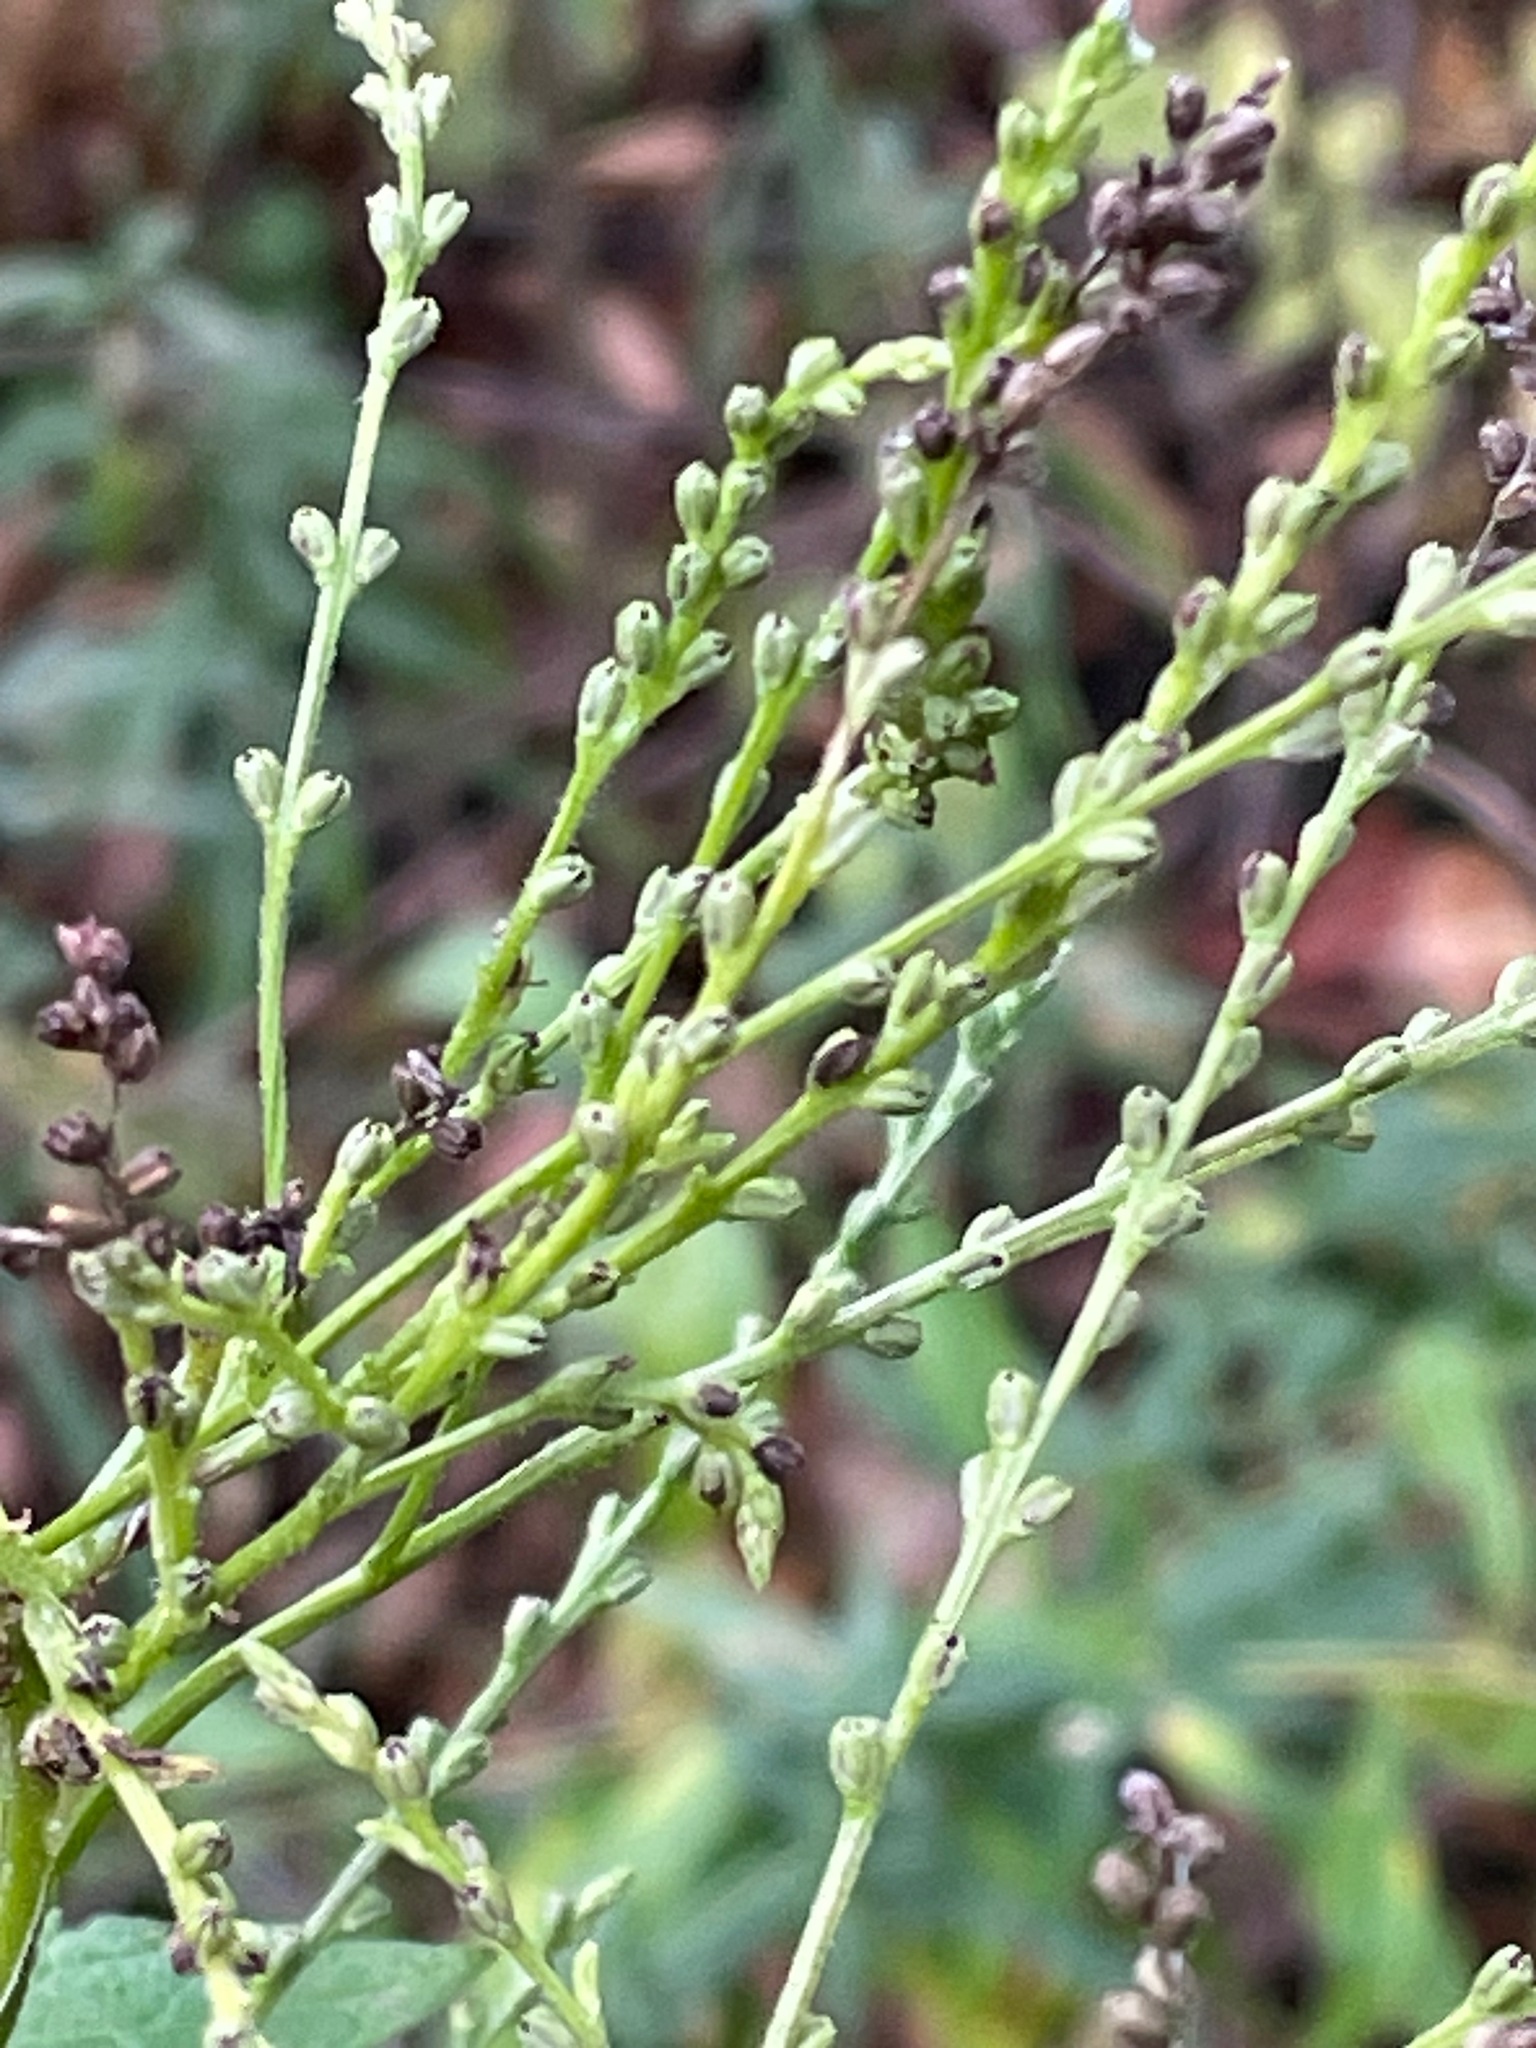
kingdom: Plantae
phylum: Tracheophyta
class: Magnoliopsida
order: Lamiales
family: Verbenaceae
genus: Verbena
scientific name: Verbena urticifolia
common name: Nettle-leaved vervain
